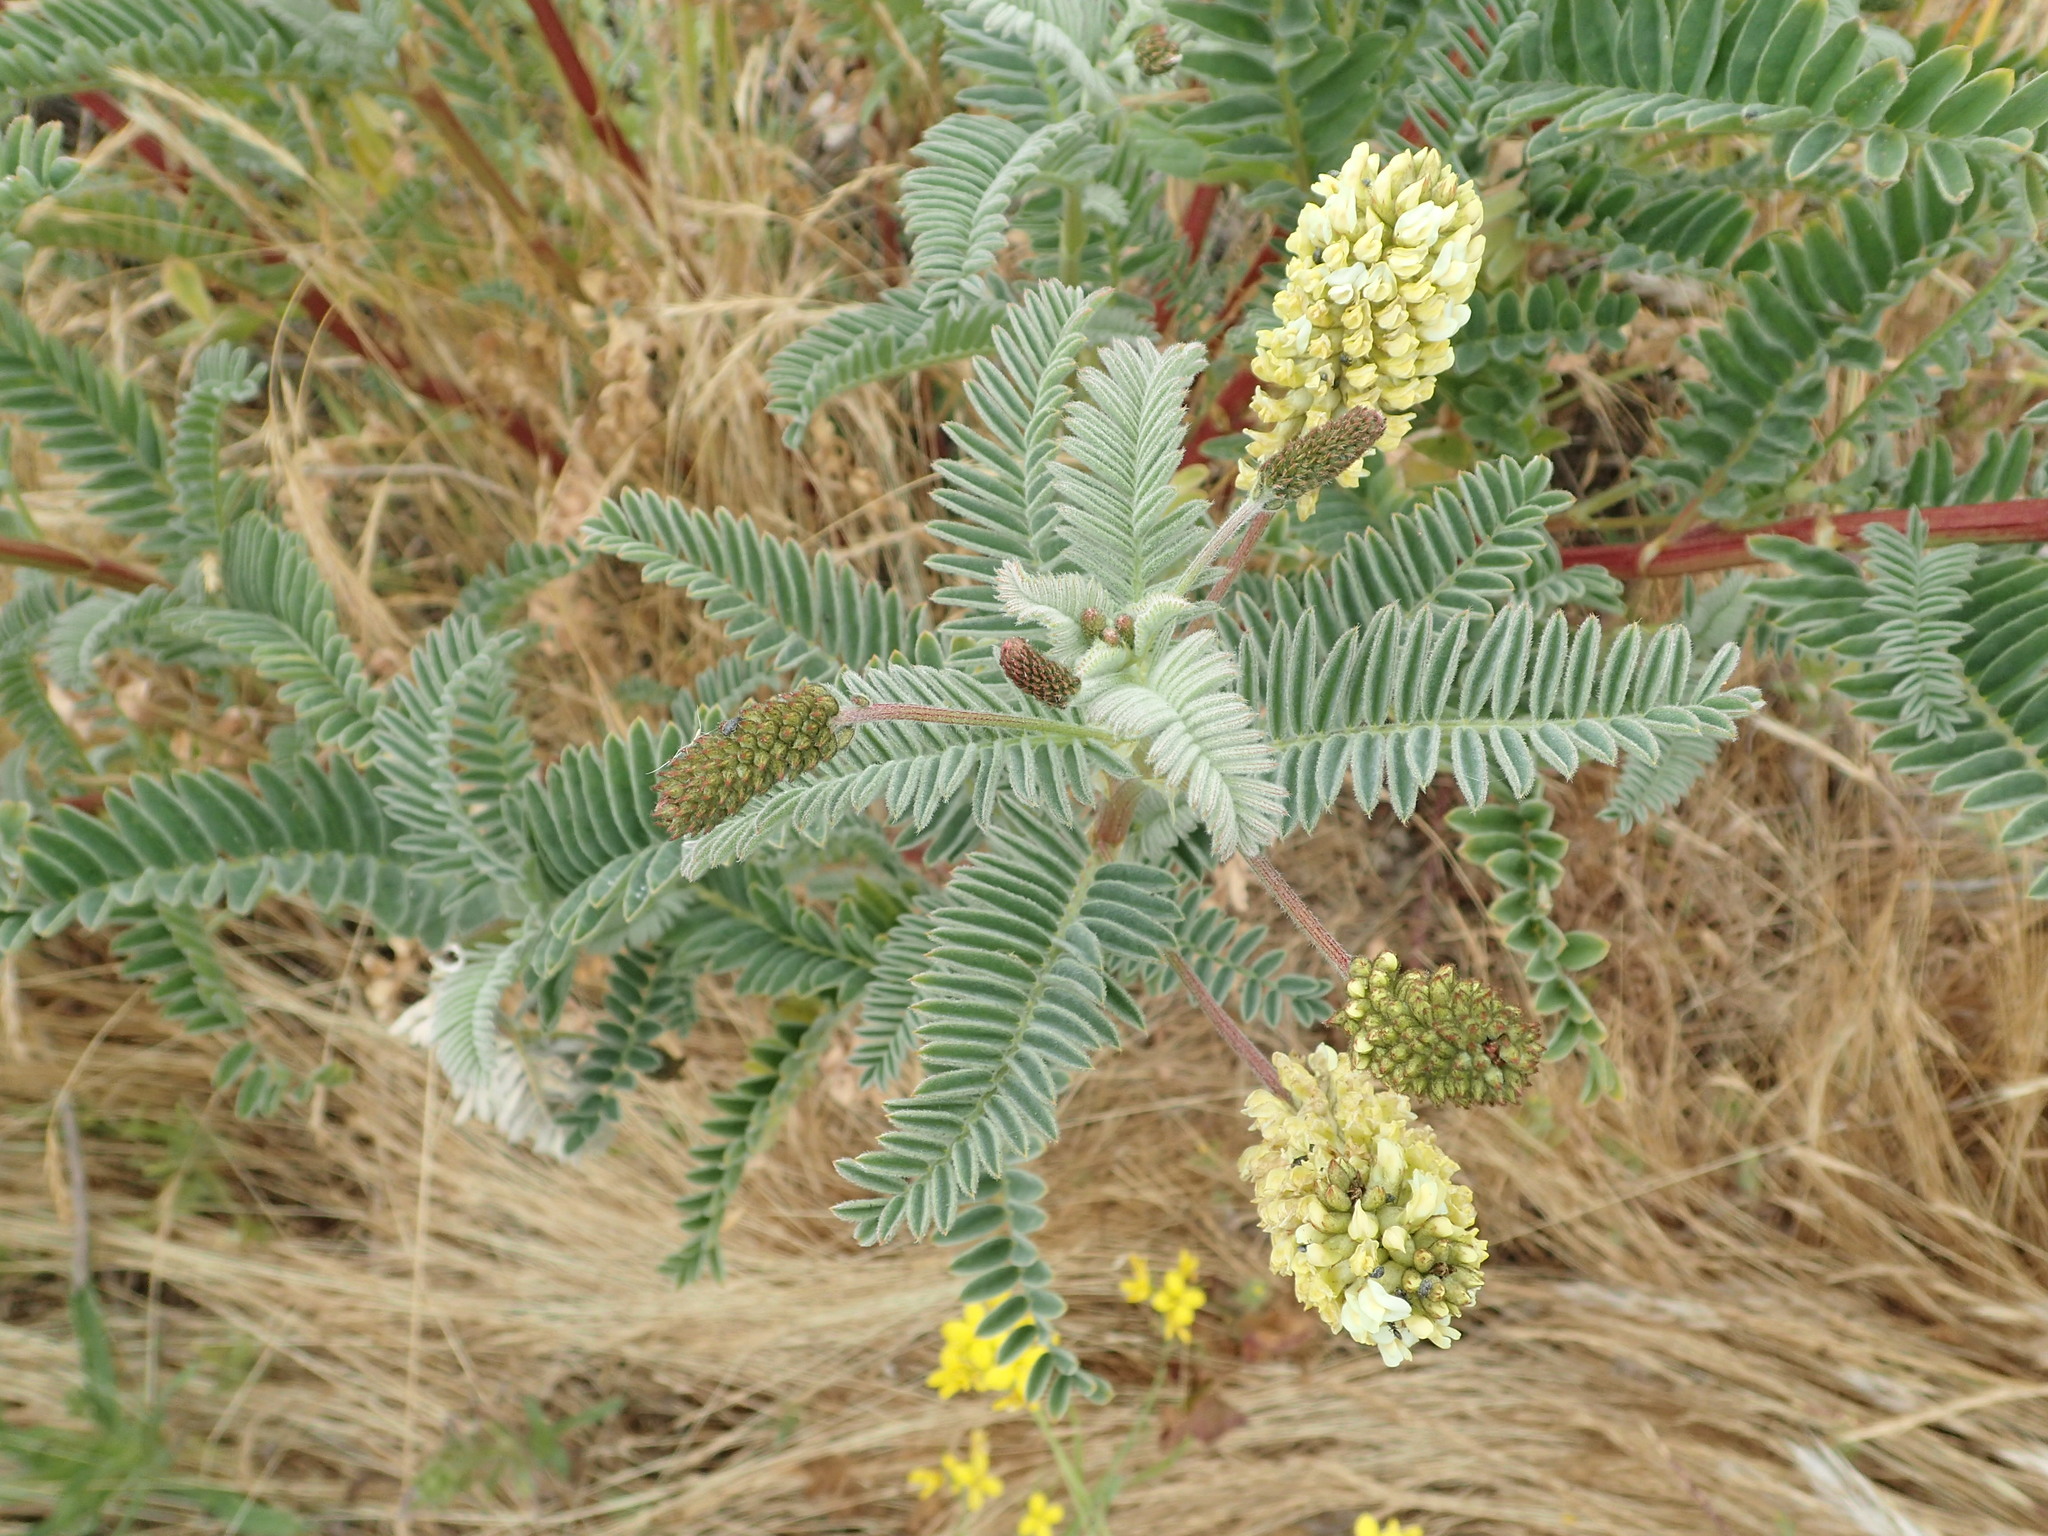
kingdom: Plantae
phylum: Tracheophyta
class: Magnoliopsida
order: Fabales
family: Fabaceae
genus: Astragalus
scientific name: Astragalus pycnostachyus
